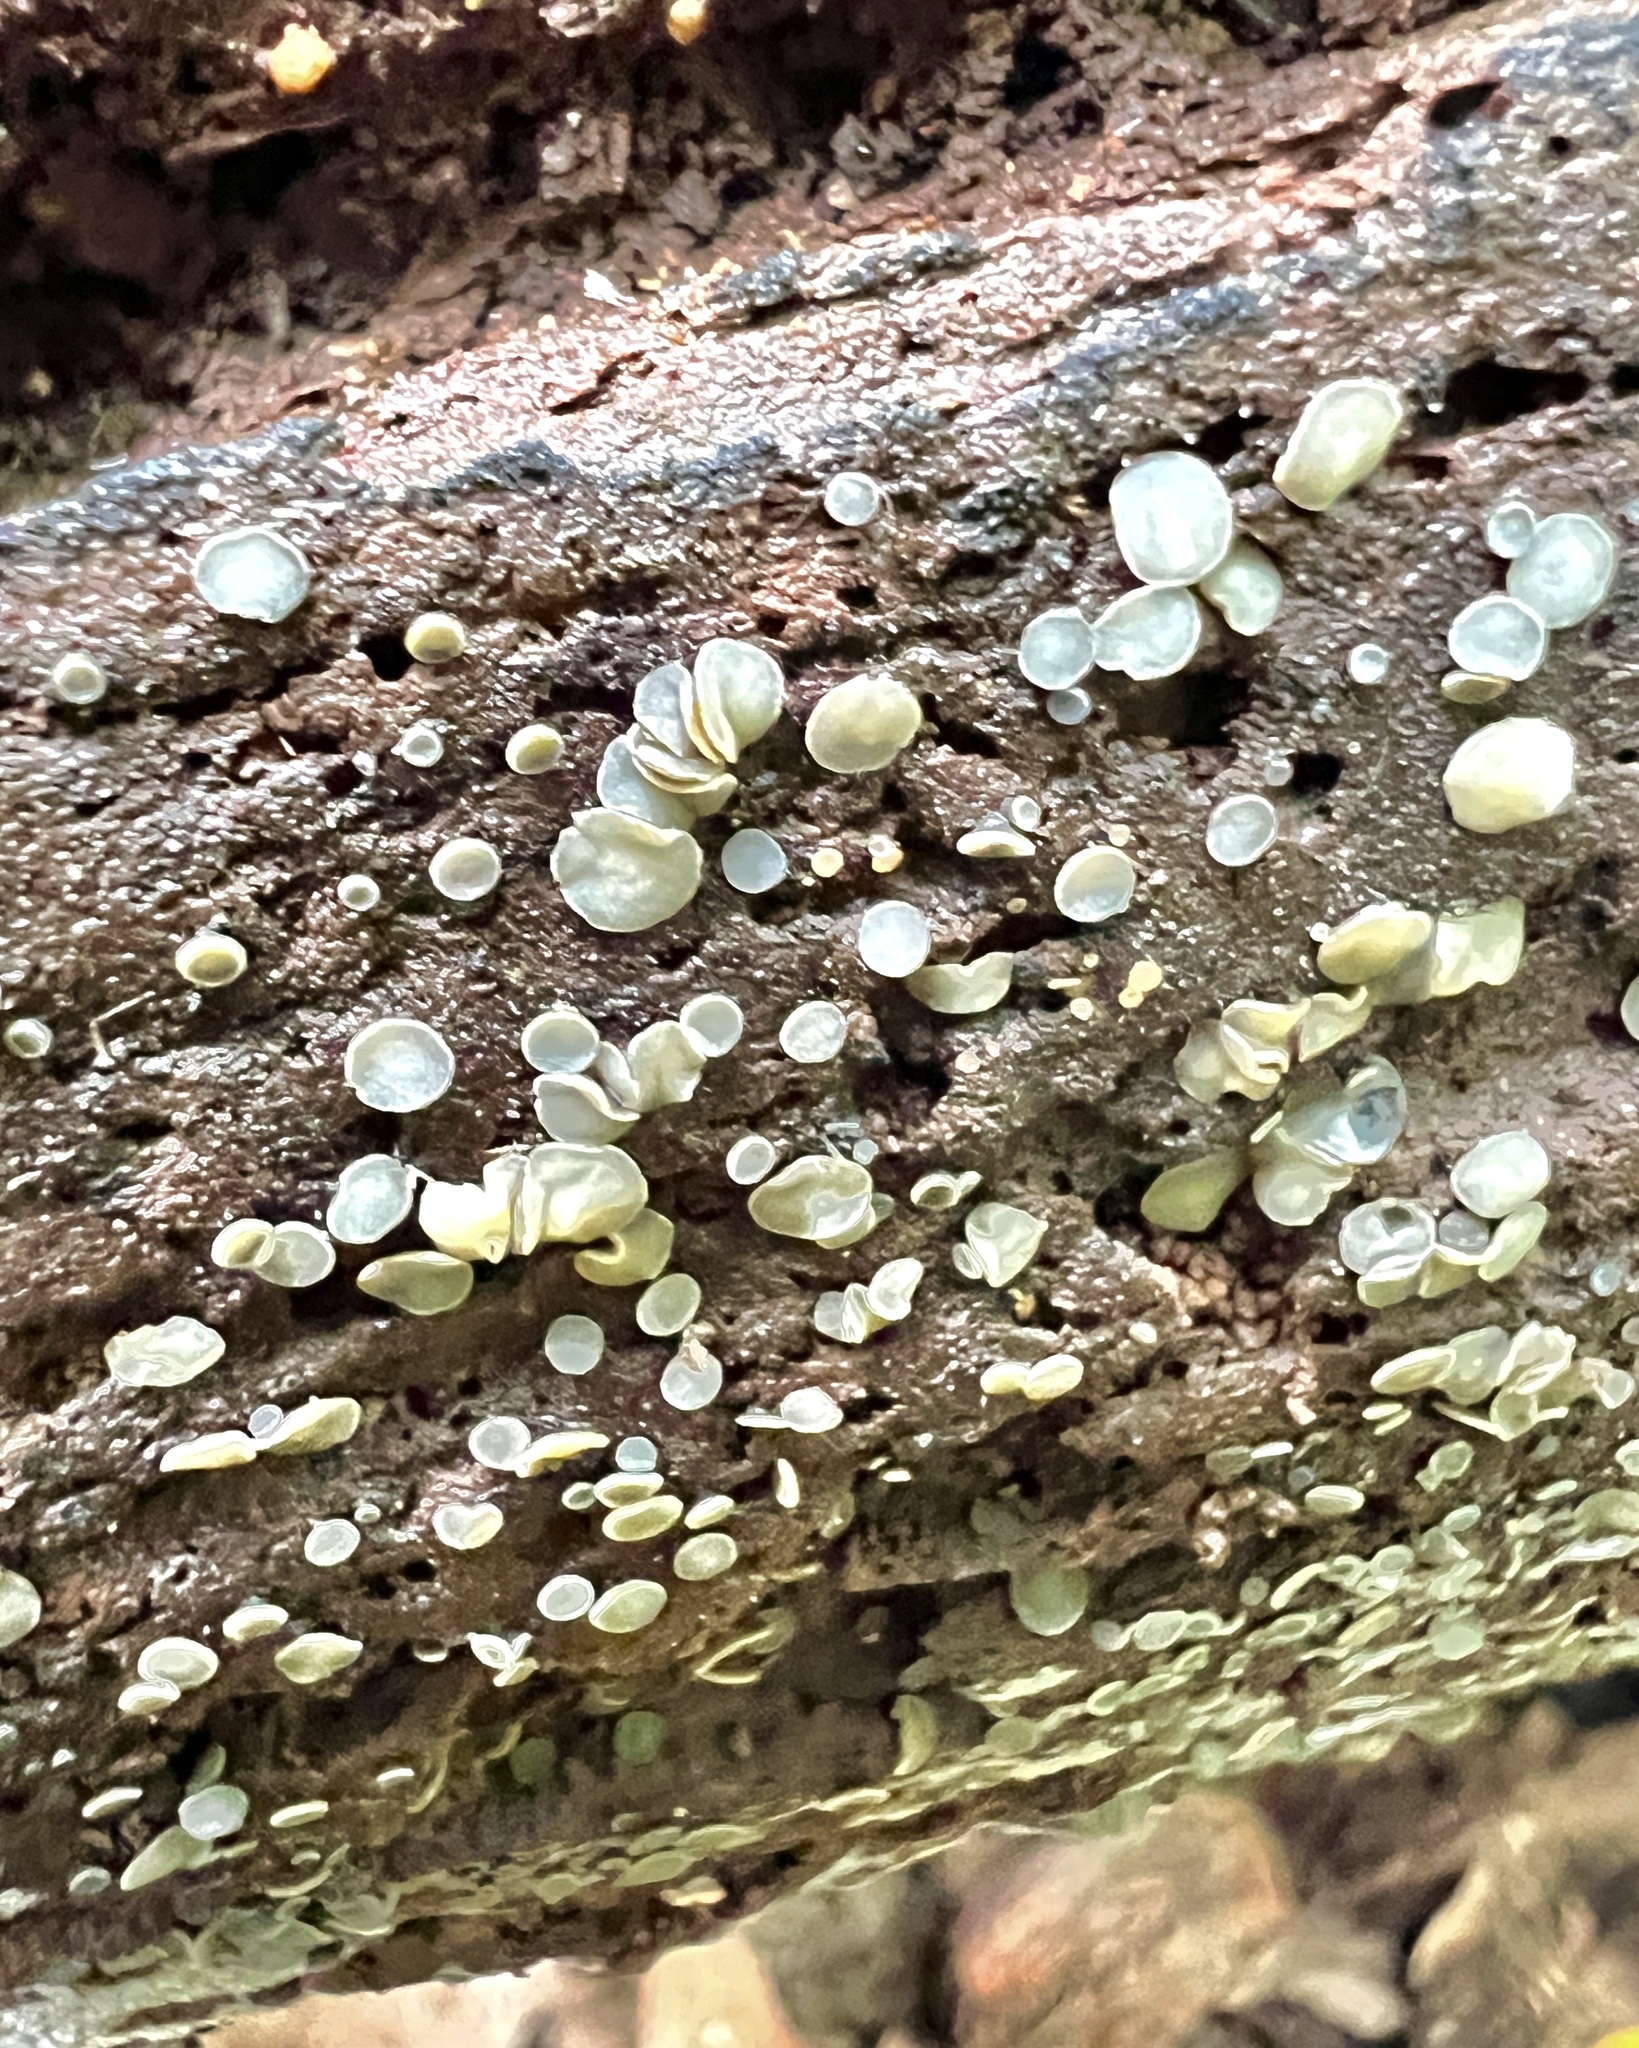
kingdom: Fungi
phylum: Ascomycota
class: Leotiomycetes
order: Helotiales
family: Mollisiaceae
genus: Mollisia
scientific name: Mollisia cinerea
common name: Common grey disco
